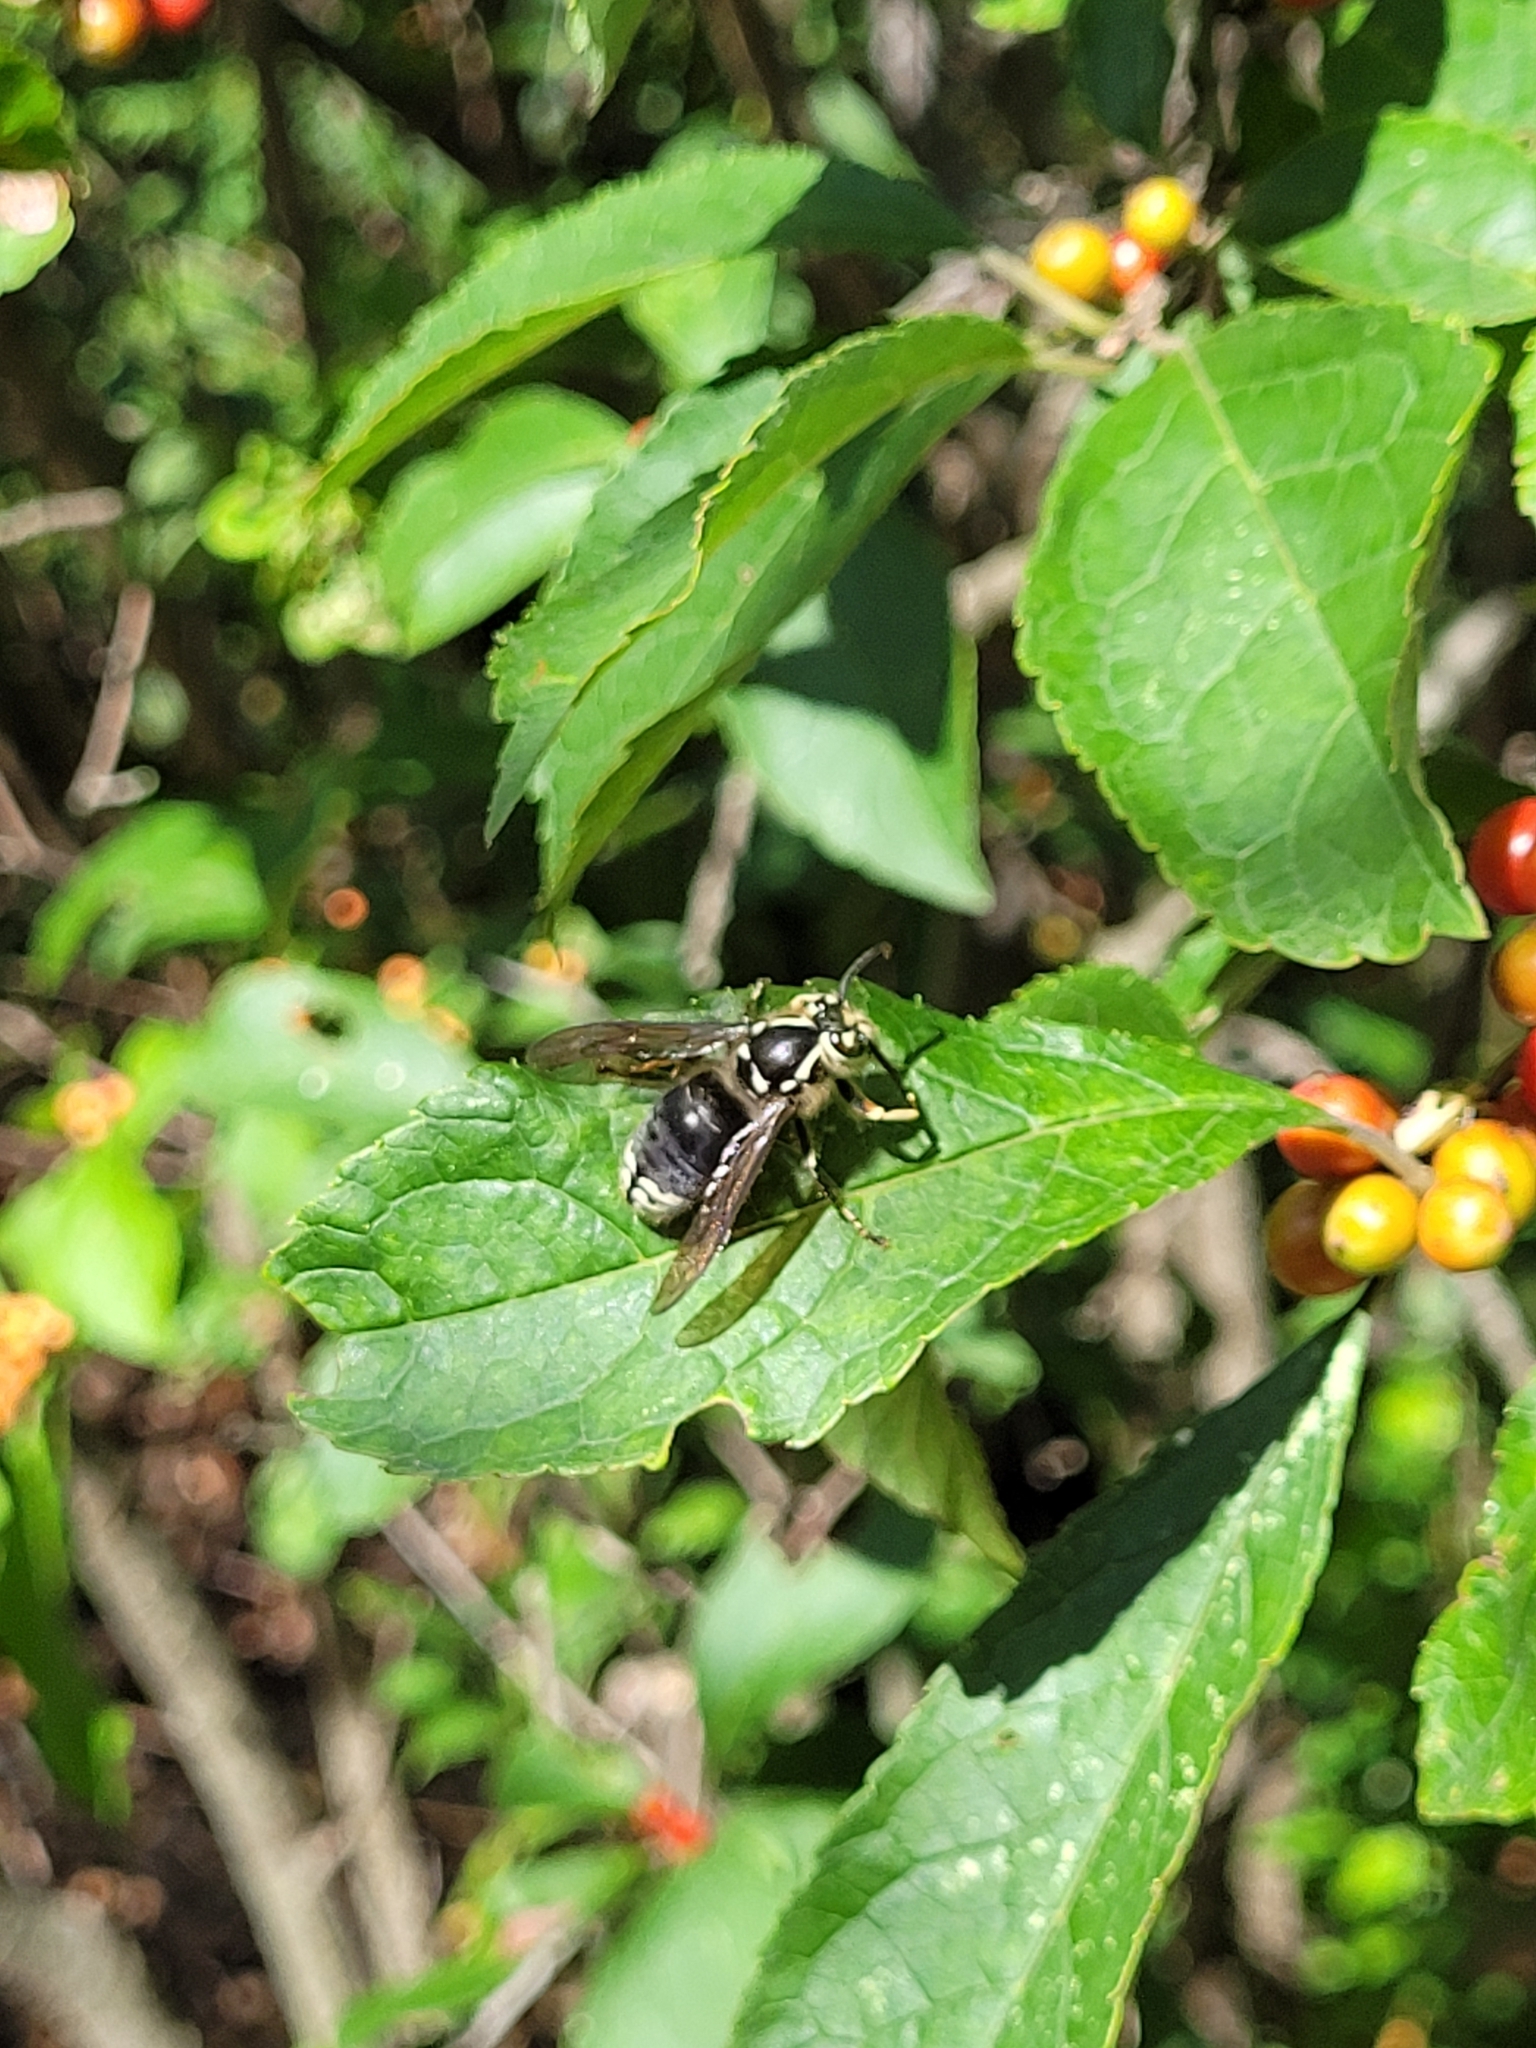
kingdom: Animalia
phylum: Arthropoda
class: Insecta
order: Hymenoptera
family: Vespidae
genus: Dolichovespula
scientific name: Dolichovespula maculata
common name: Bald-faced hornet
